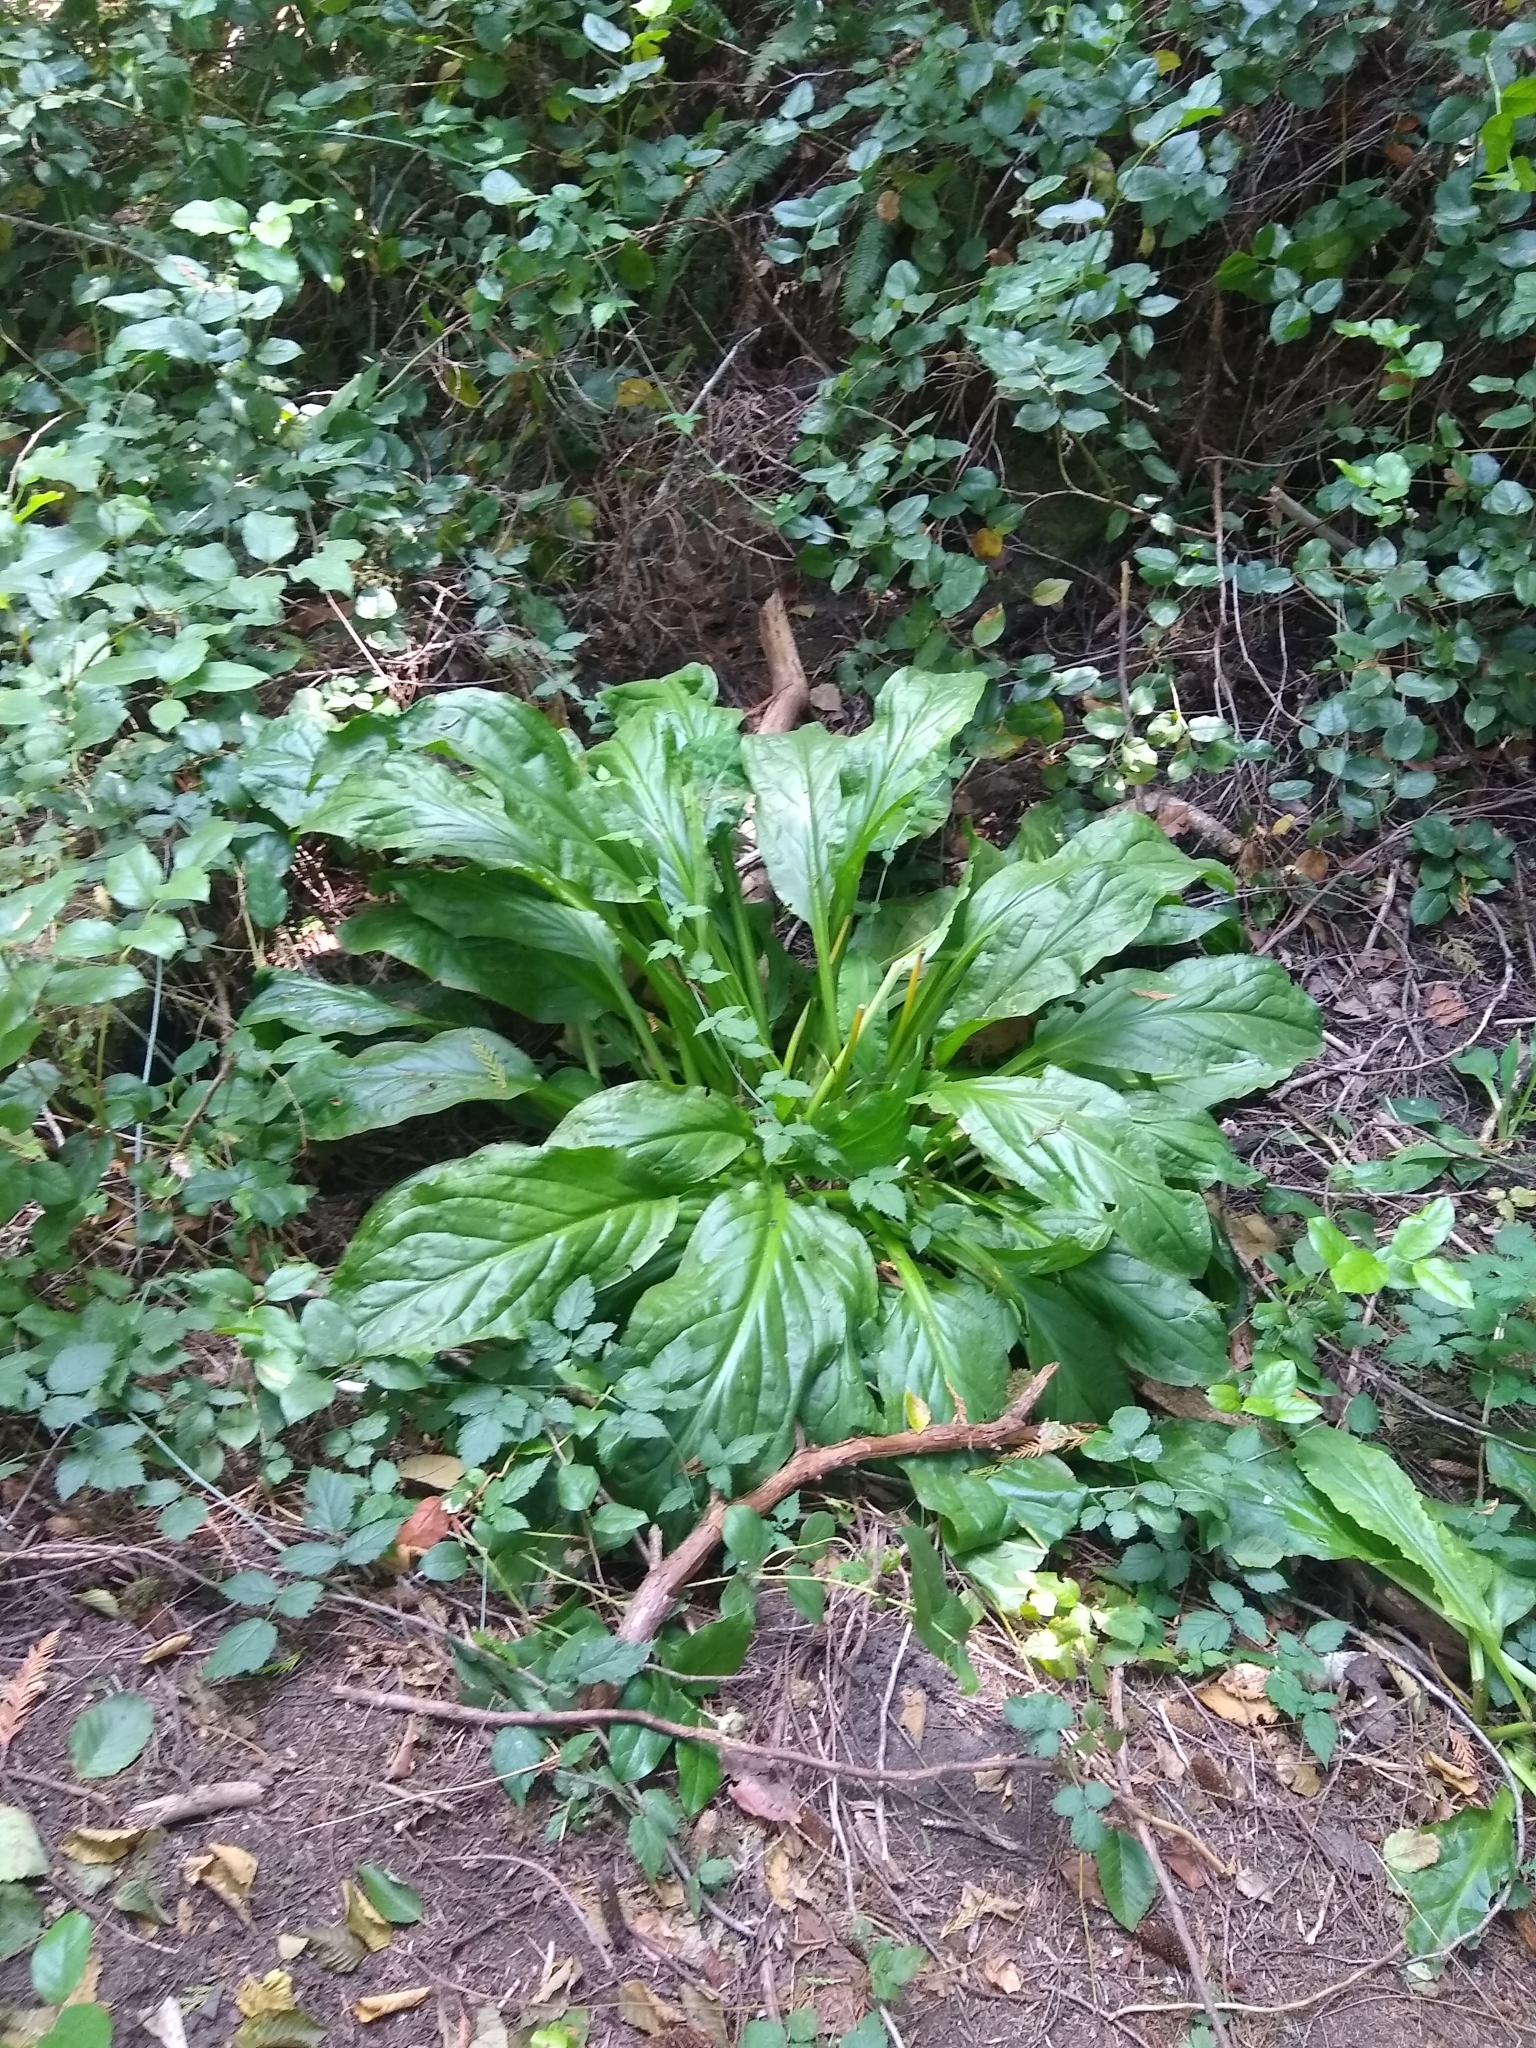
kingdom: Plantae
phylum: Tracheophyta
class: Liliopsida
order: Alismatales
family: Araceae
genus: Lysichiton
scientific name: Lysichiton americanus
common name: American skunk cabbage
